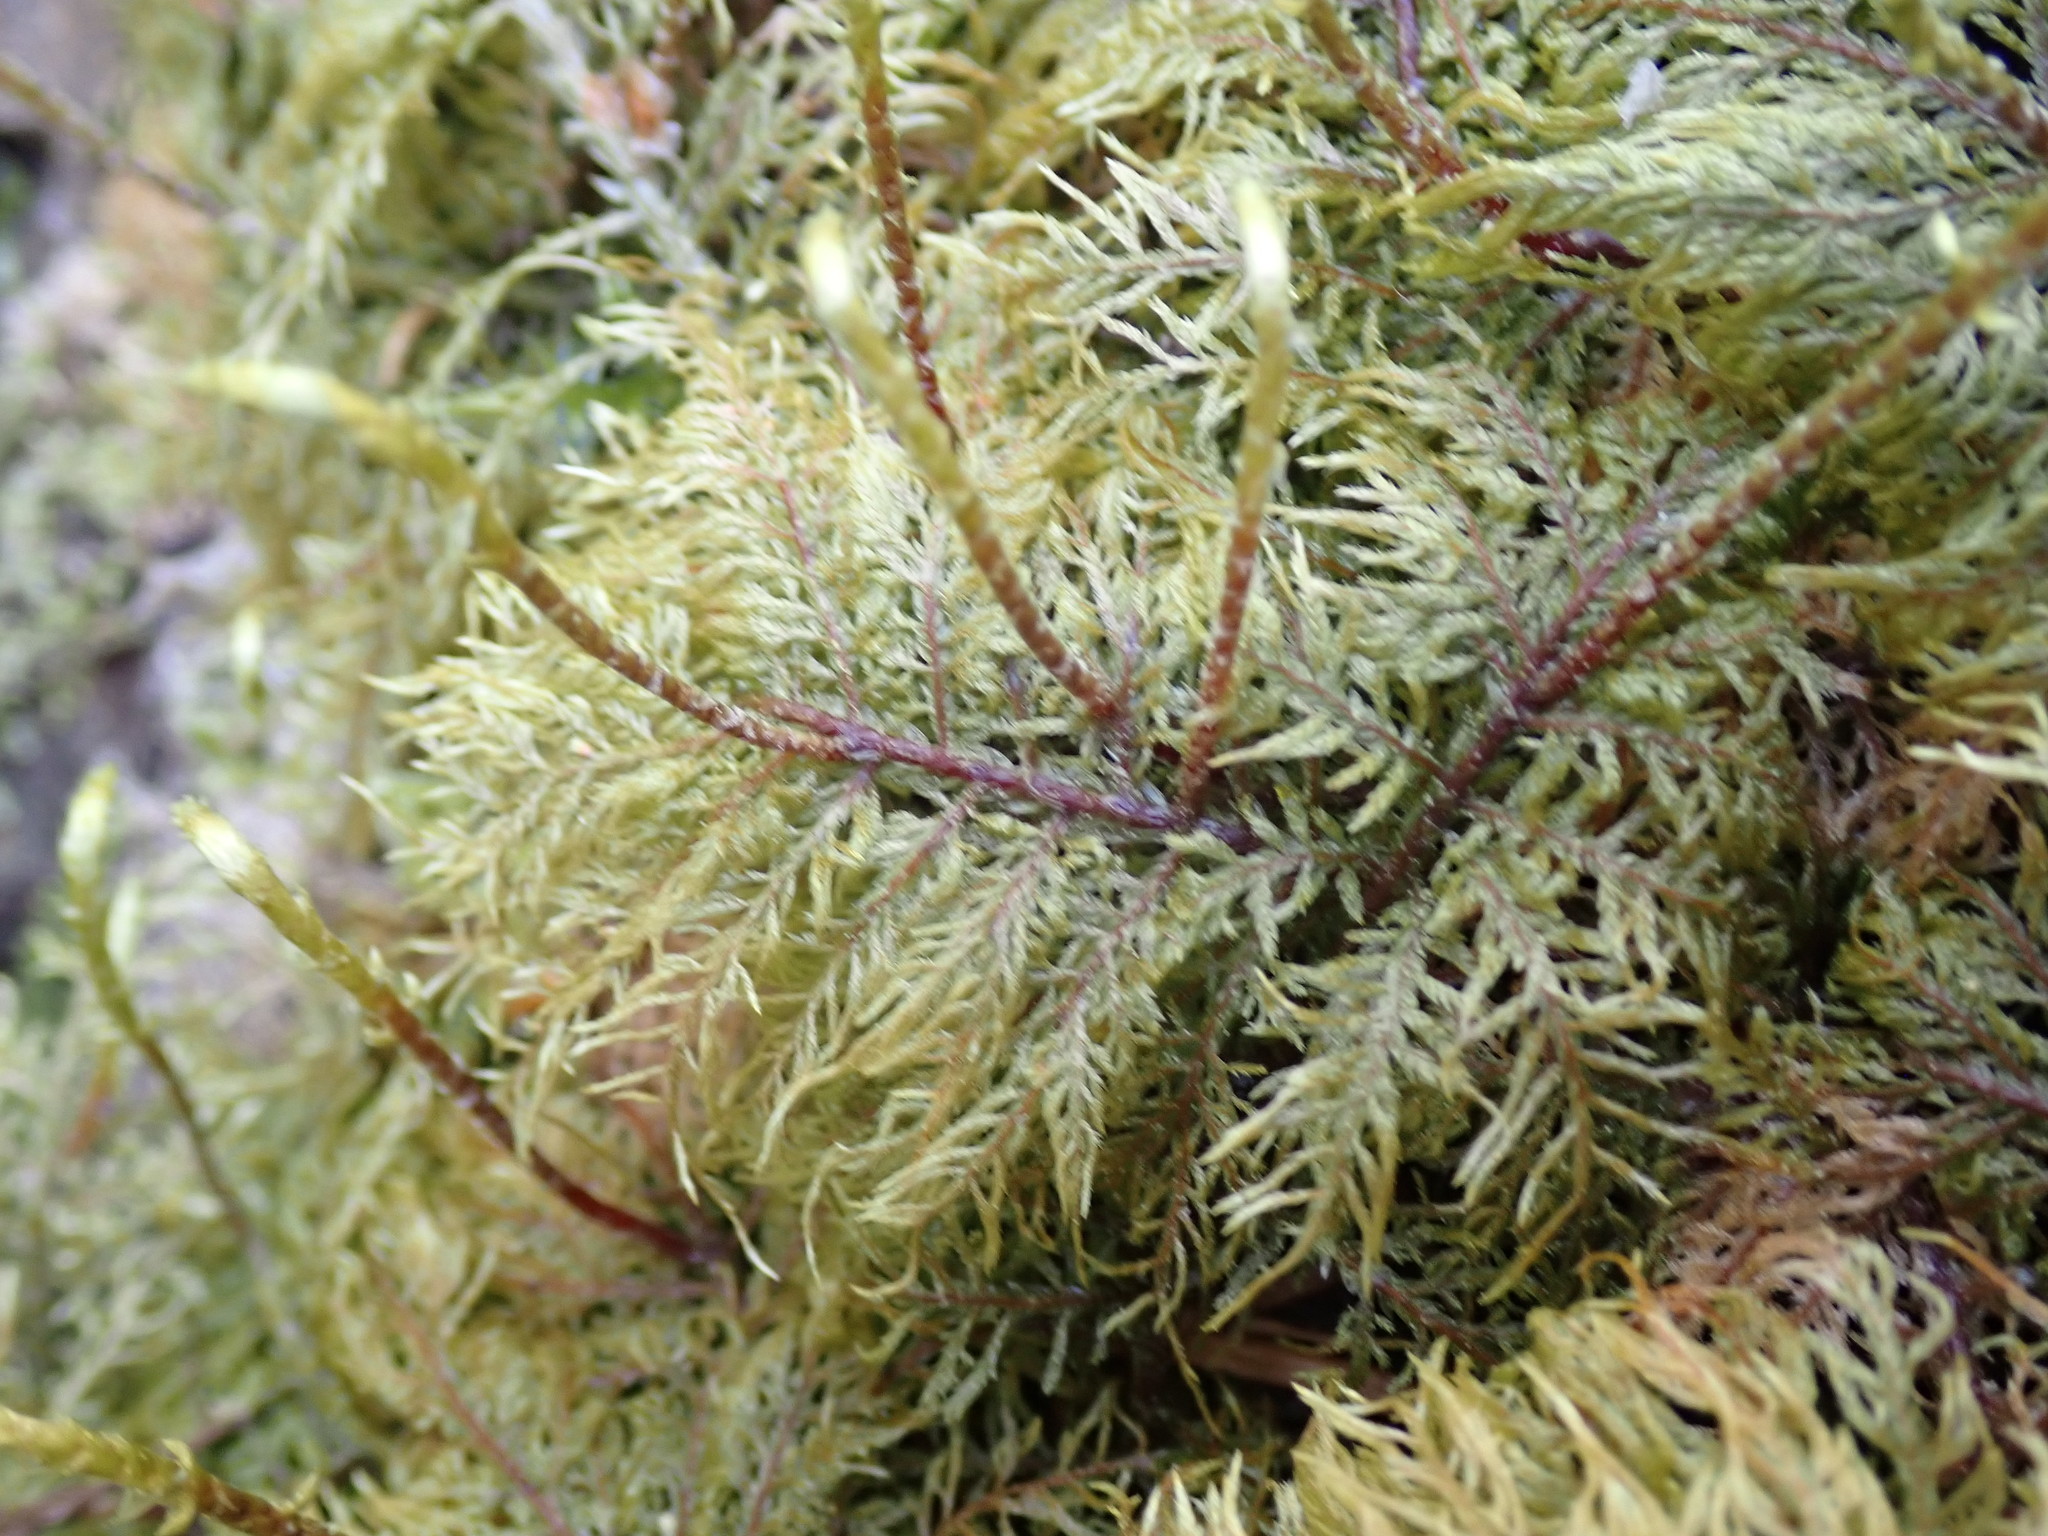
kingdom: Plantae
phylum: Bryophyta
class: Bryopsida
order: Hypnales
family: Hylocomiaceae
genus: Hylocomium
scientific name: Hylocomium splendens
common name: Stairstep moss
